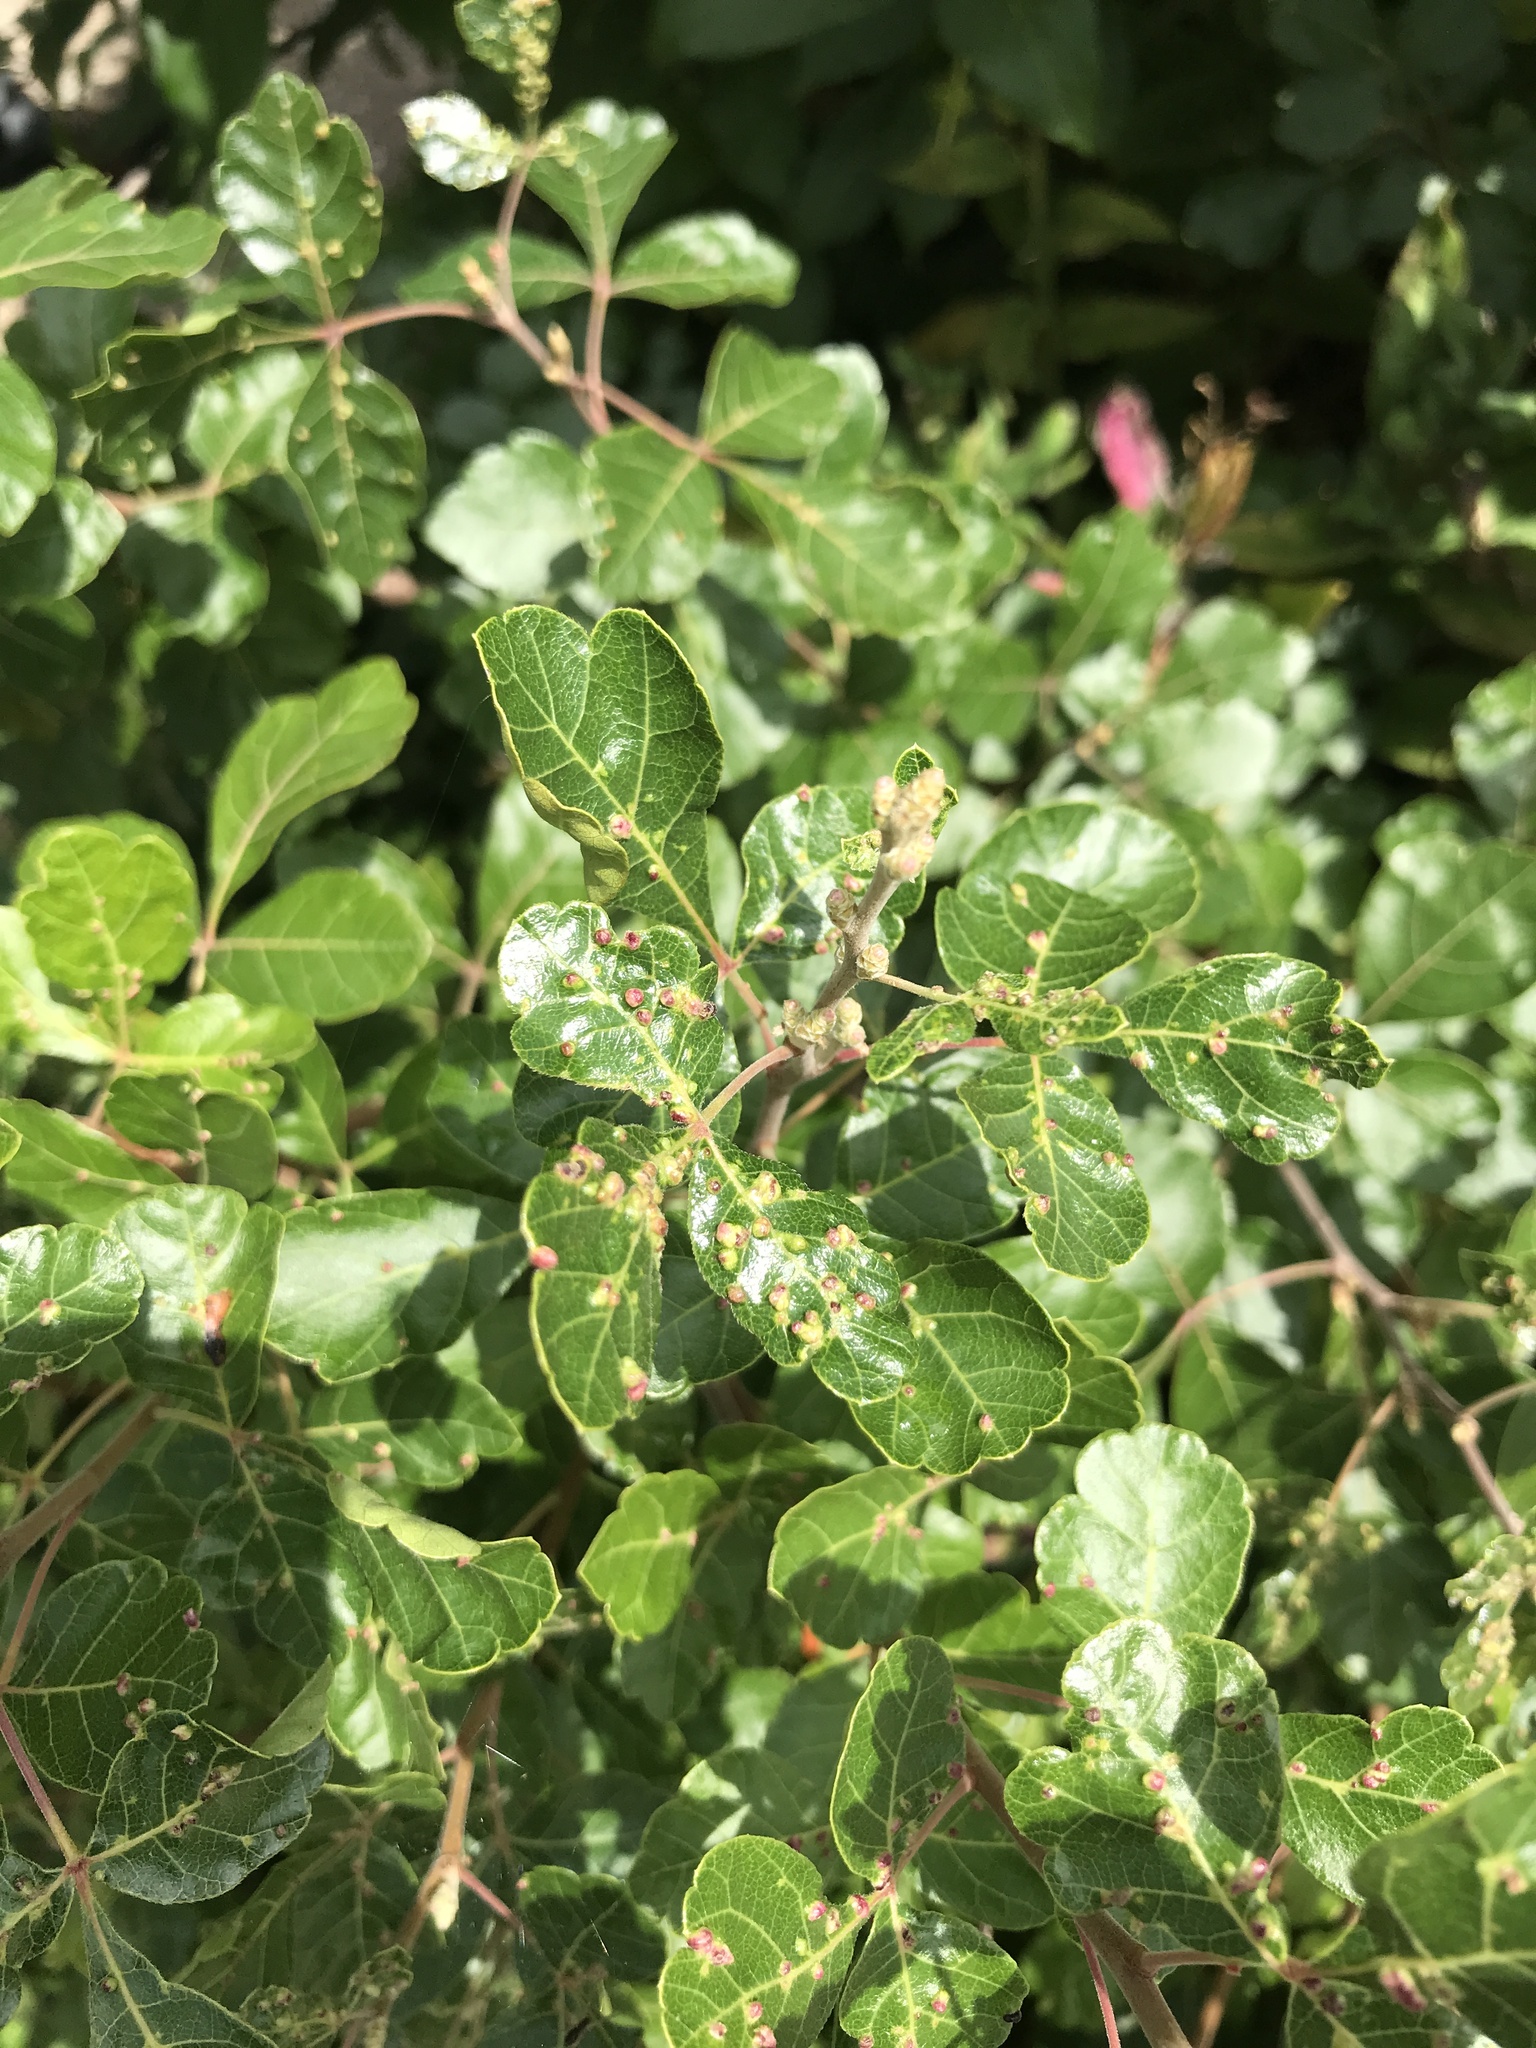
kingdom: Animalia
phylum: Arthropoda
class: Arachnida
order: Trombidiformes
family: Eriophyidae
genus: Aculops
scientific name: Aculops
